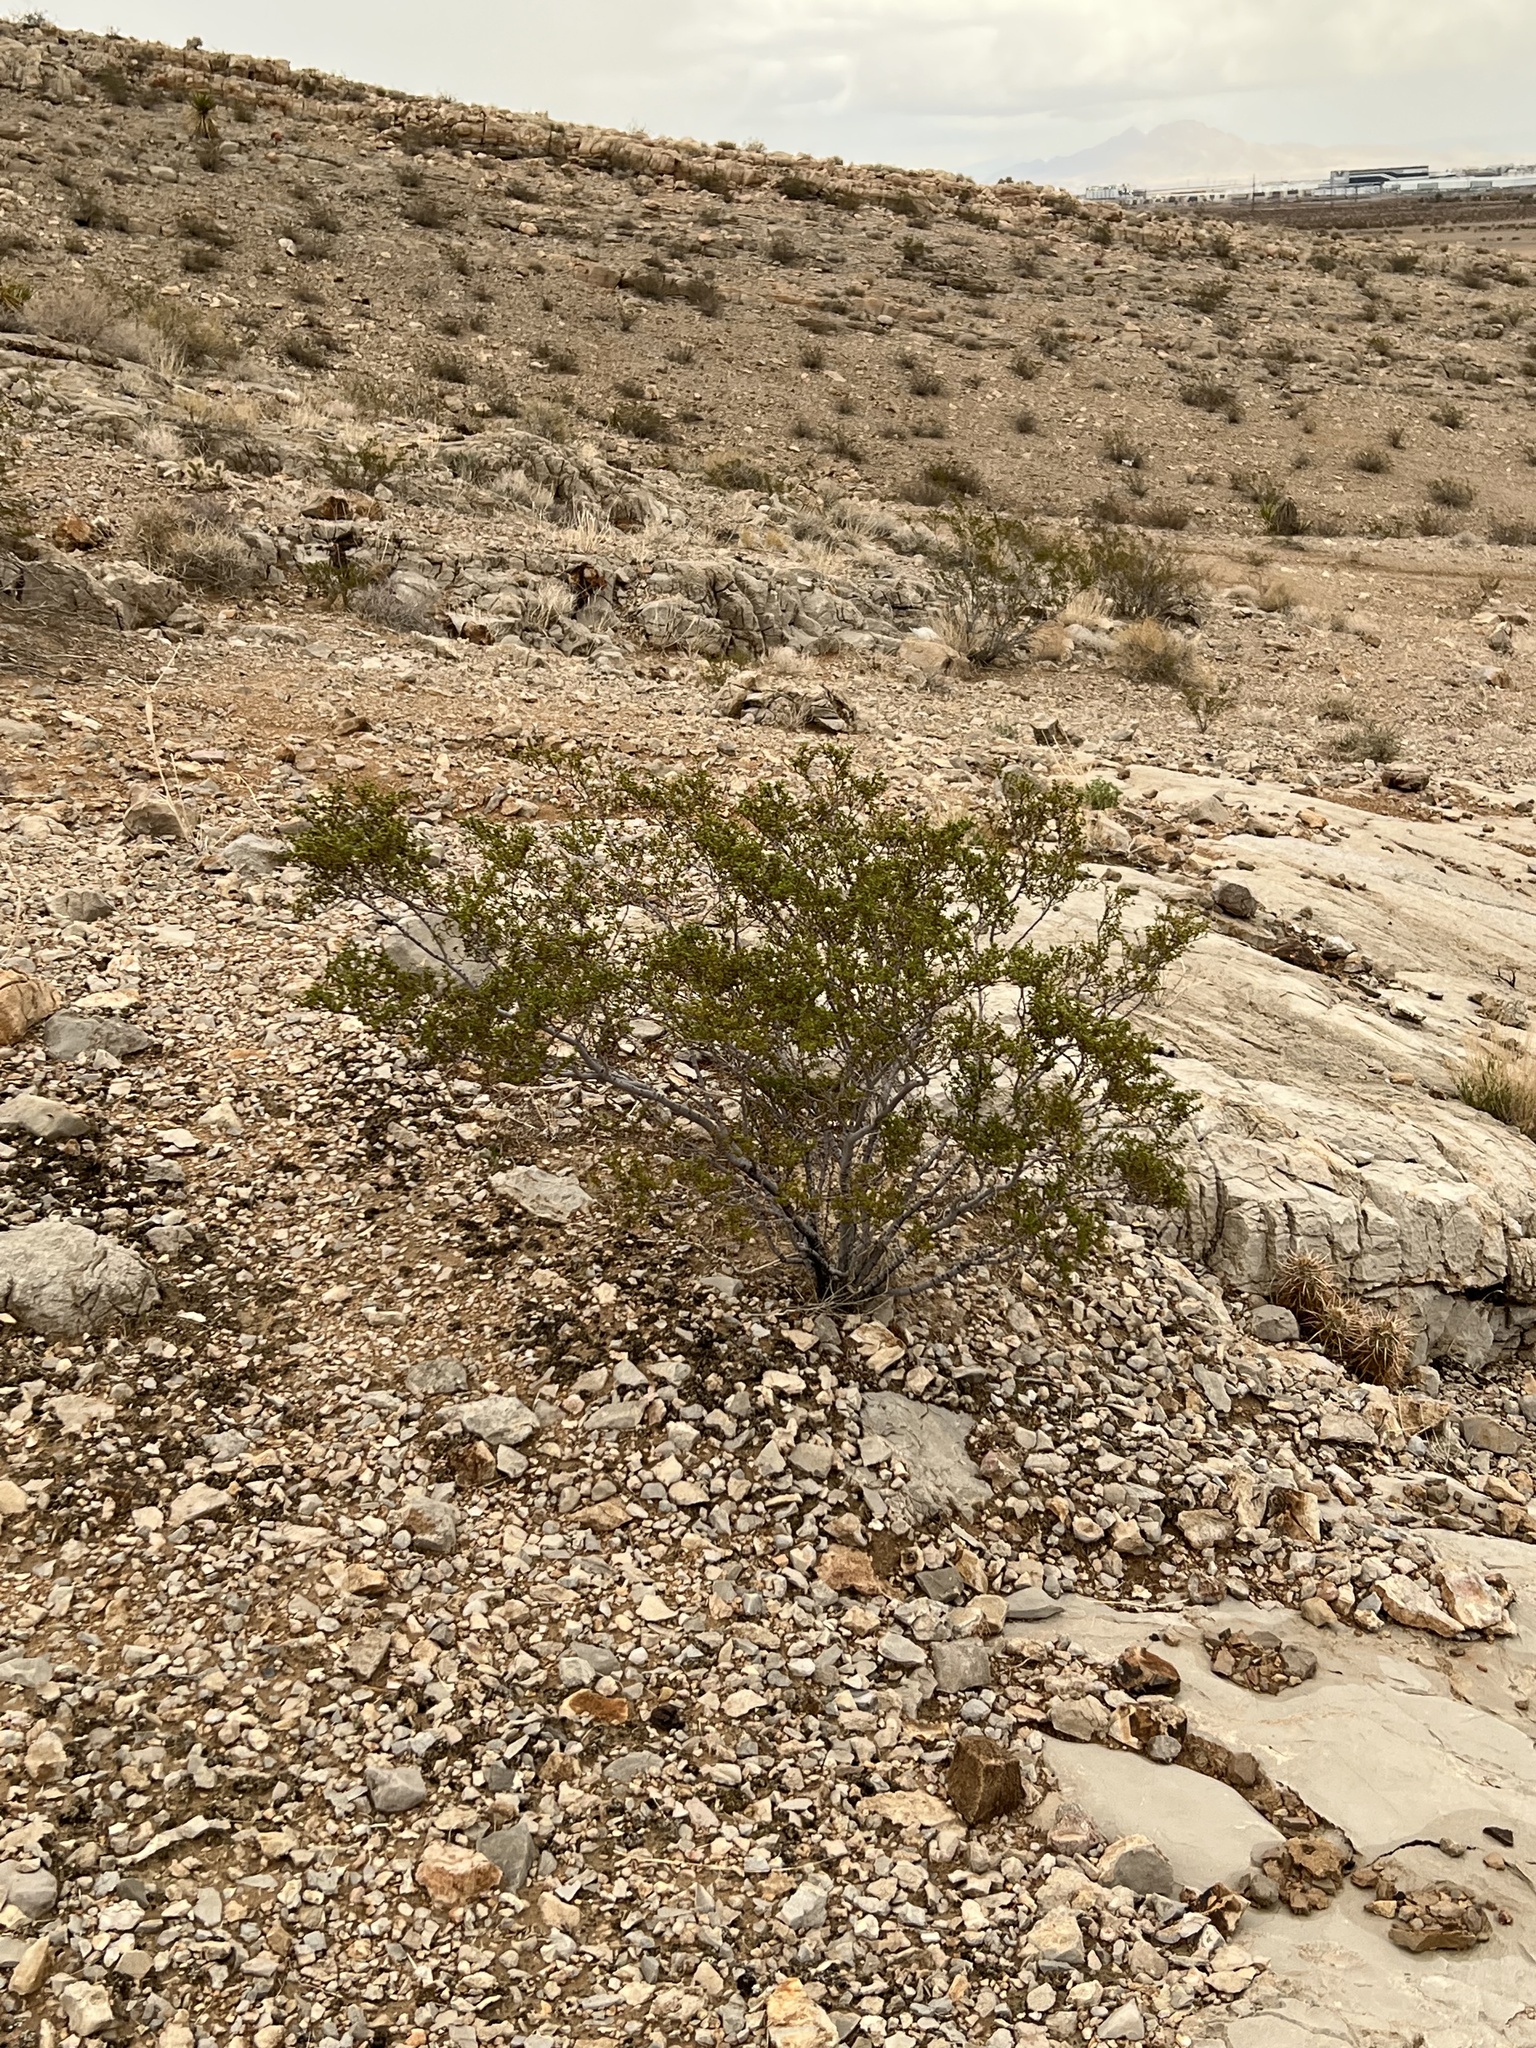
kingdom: Plantae
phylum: Tracheophyta
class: Magnoliopsida
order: Zygophyllales
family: Zygophyllaceae
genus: Larrea
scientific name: Larrea tridentata
